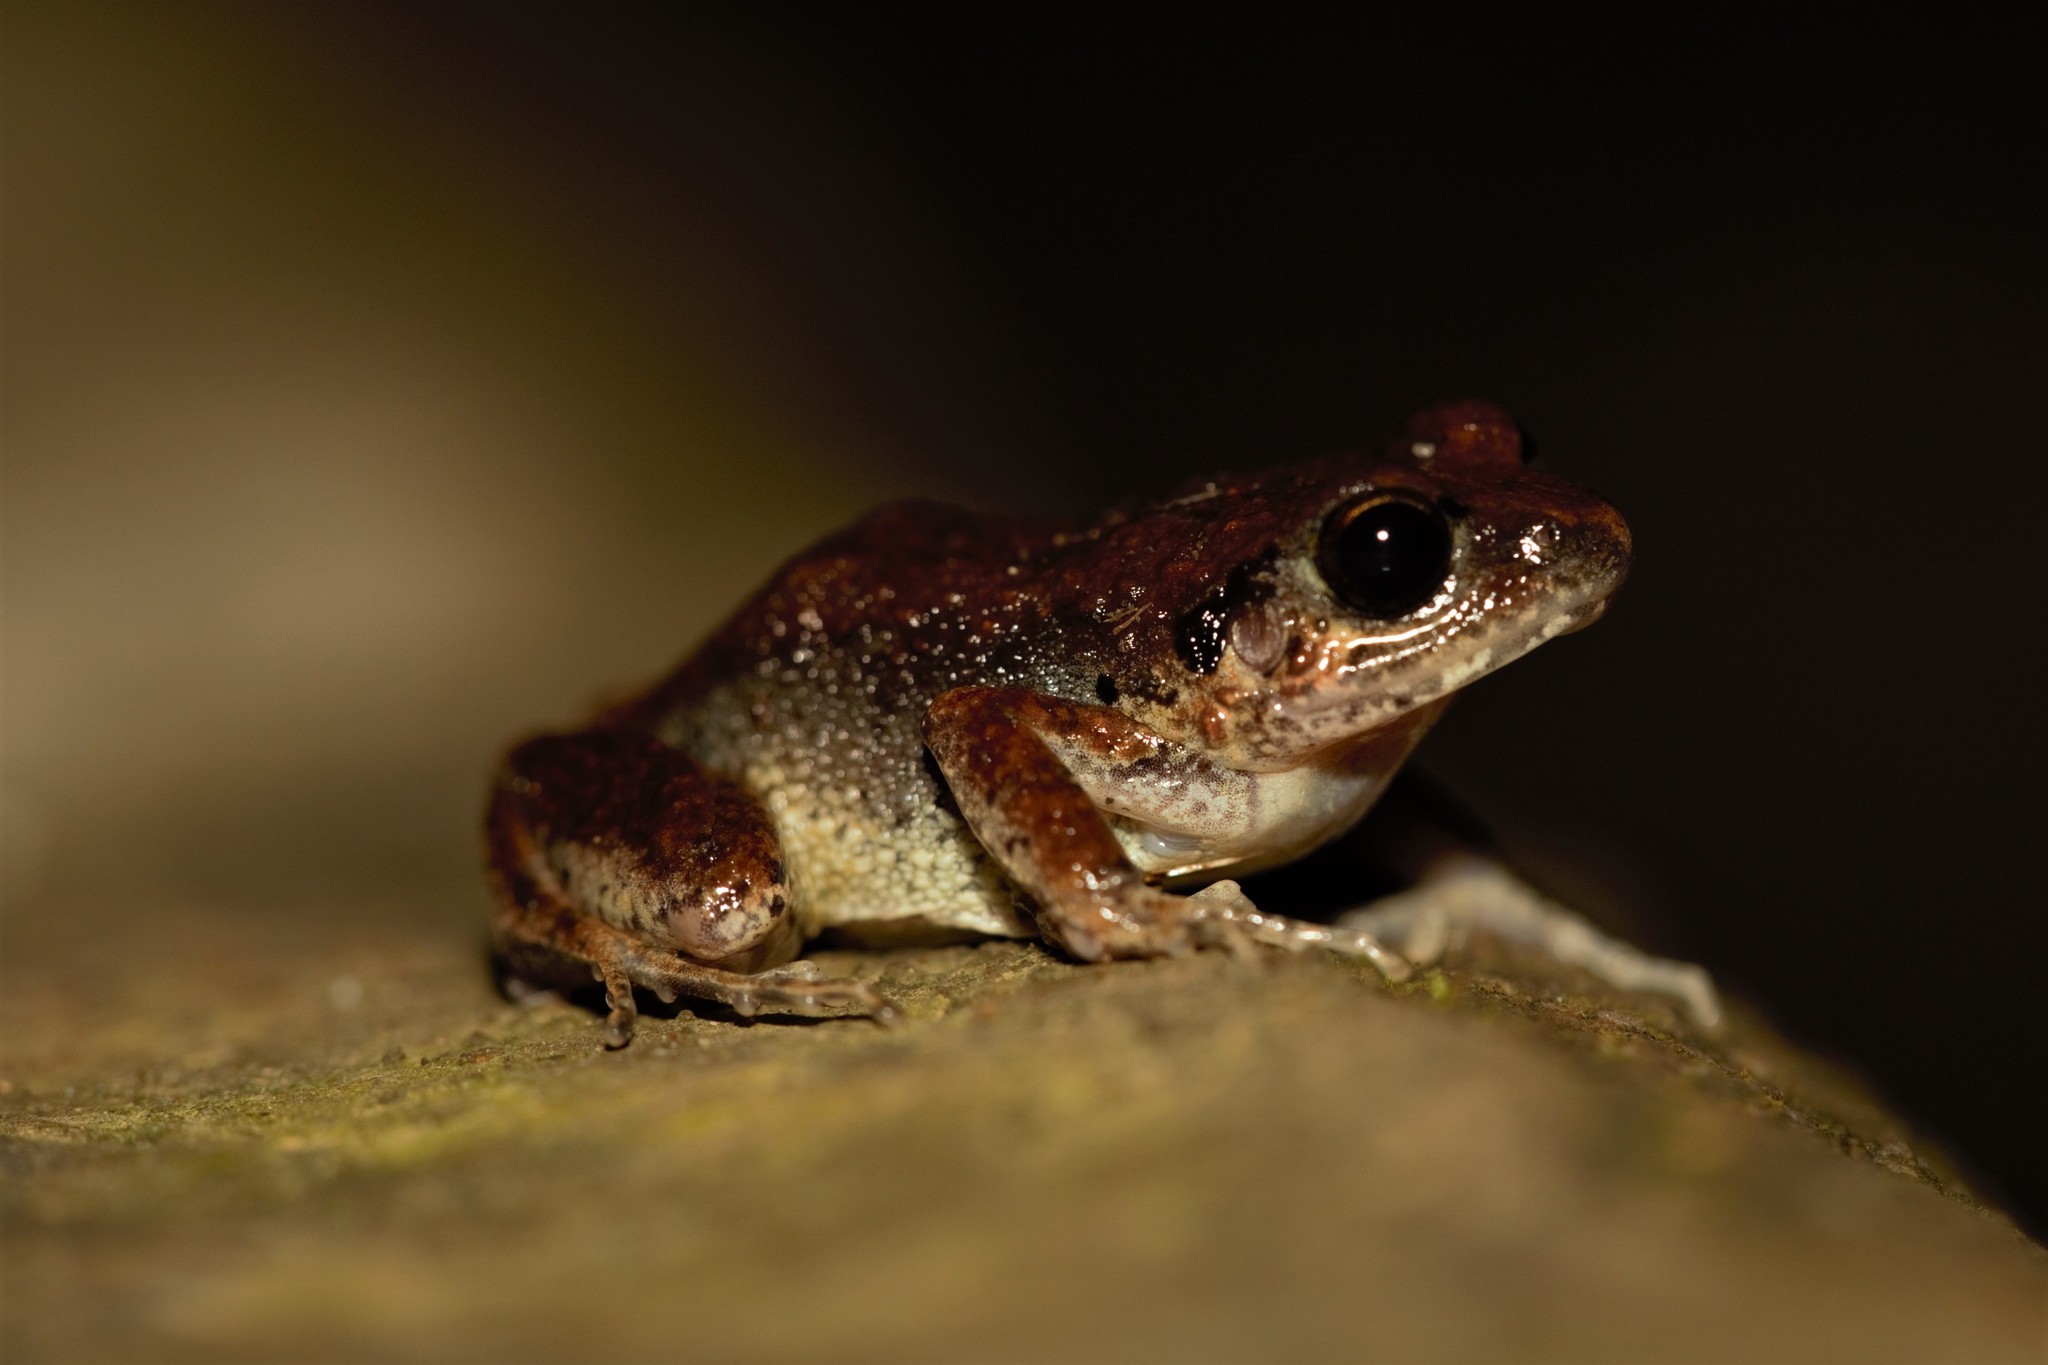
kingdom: Animalia
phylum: Chordata
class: Amphibia
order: Anura
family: Arthroleptidae
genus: Arthroleptis
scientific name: Arthroleptis poecilonotus
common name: West african screeching frog
